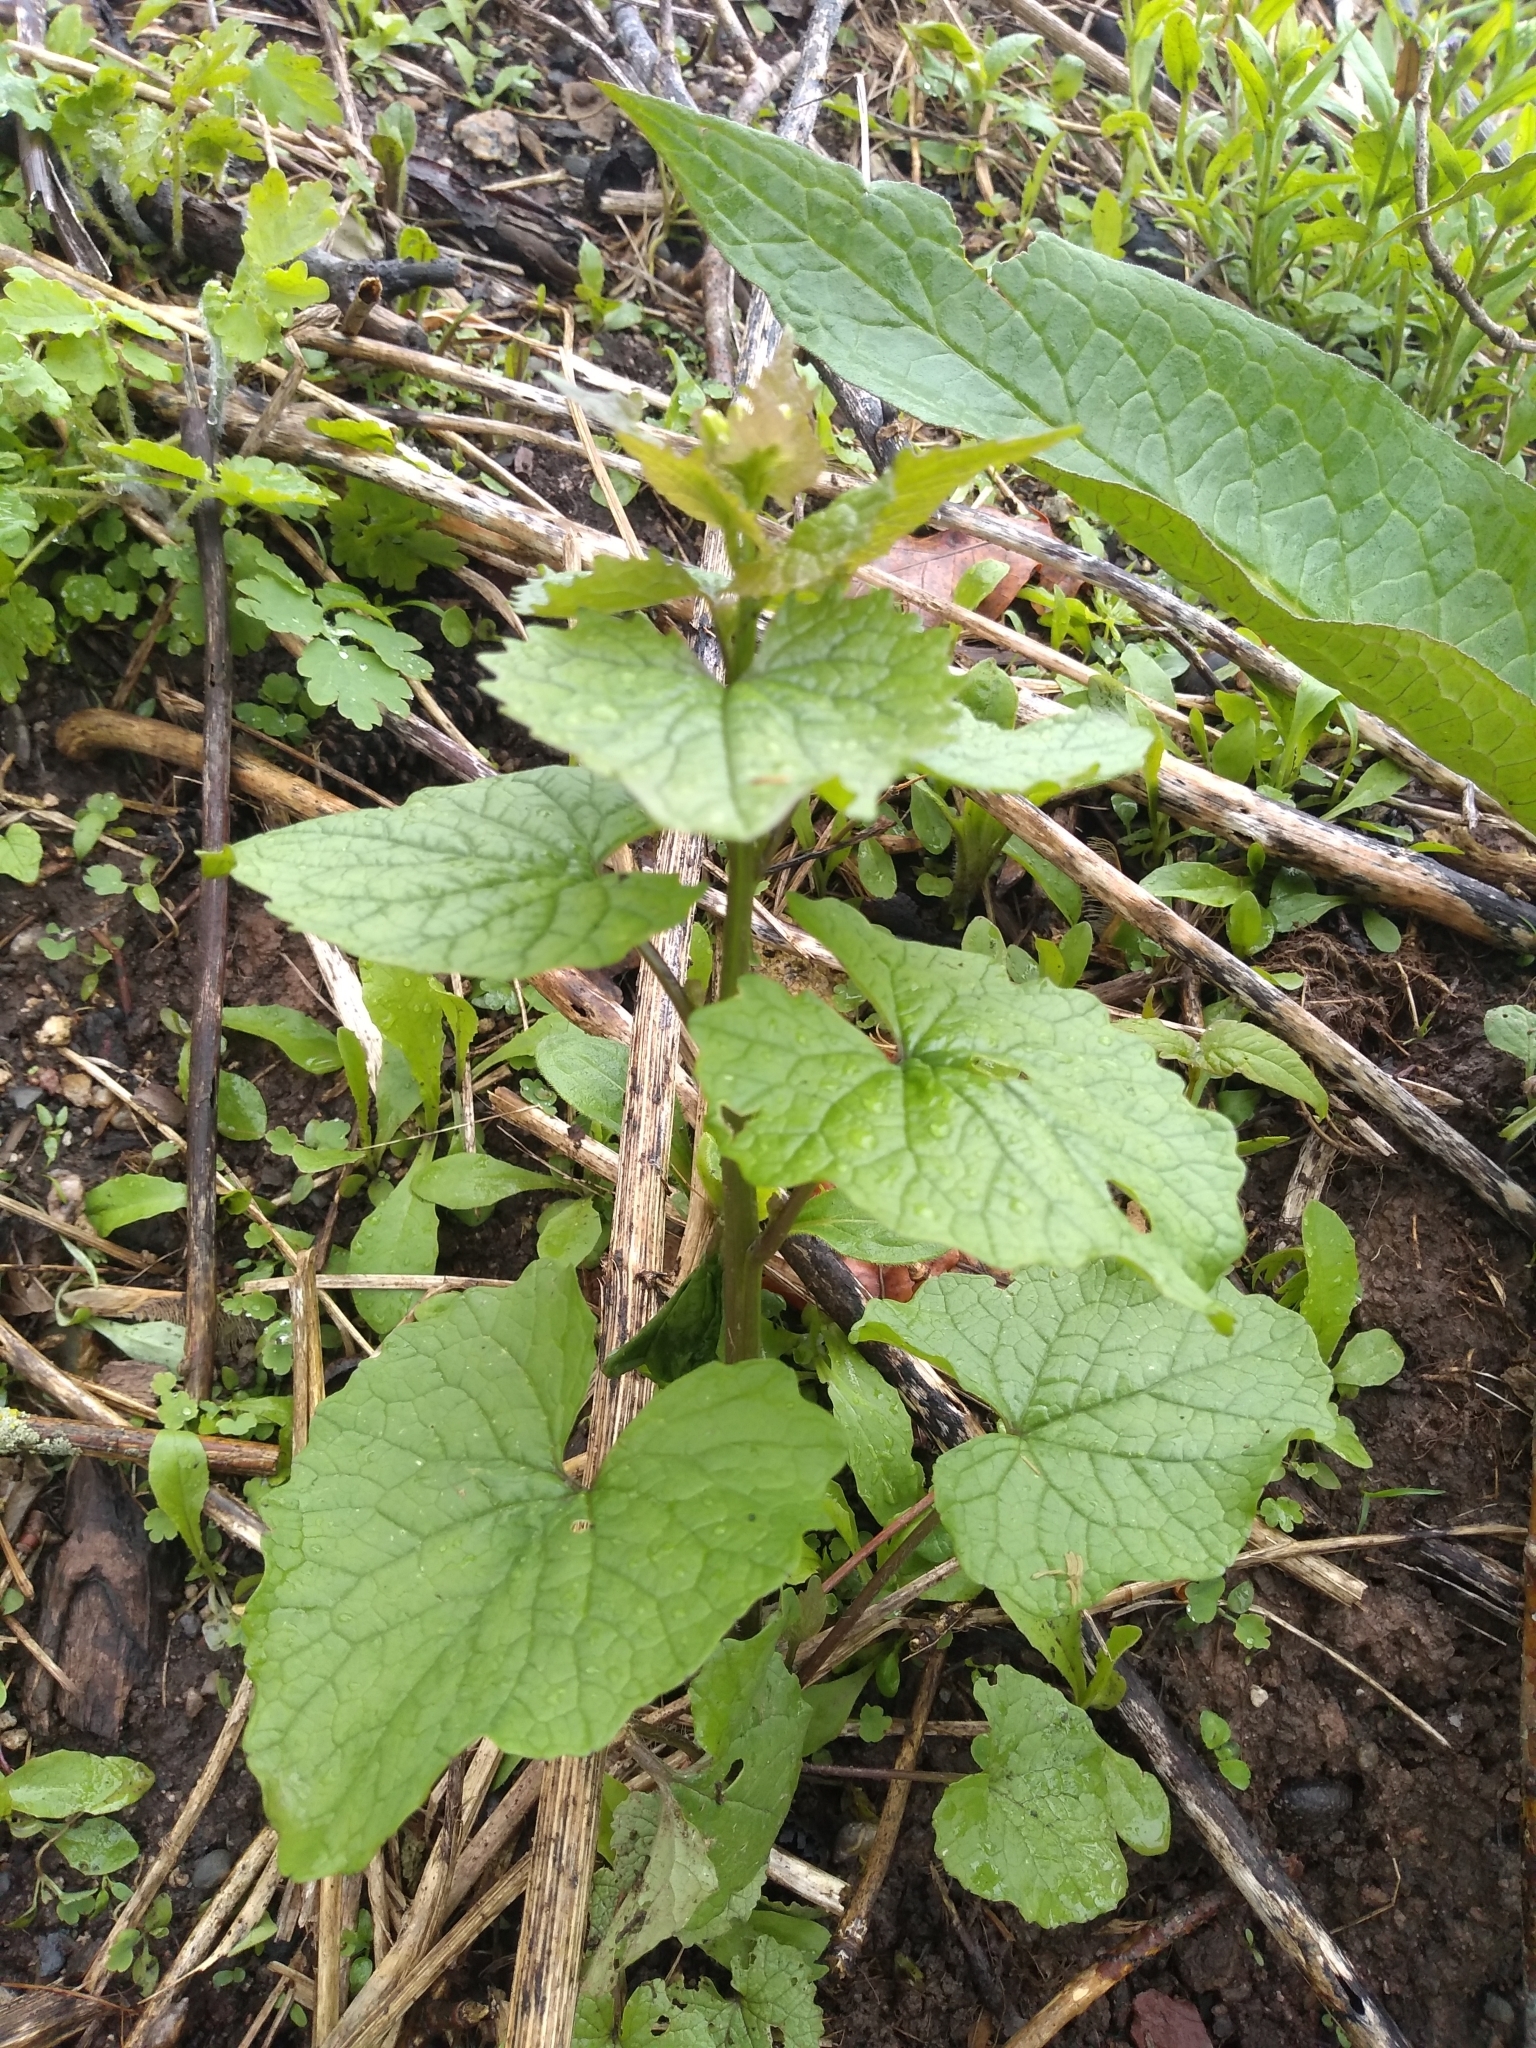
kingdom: Plantae
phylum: Tracheophyta
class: Magnoliopsida
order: Brassicales
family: Brassicaceae
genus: Alliaria
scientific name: Alliaria petiolata
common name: Garlic mustard
